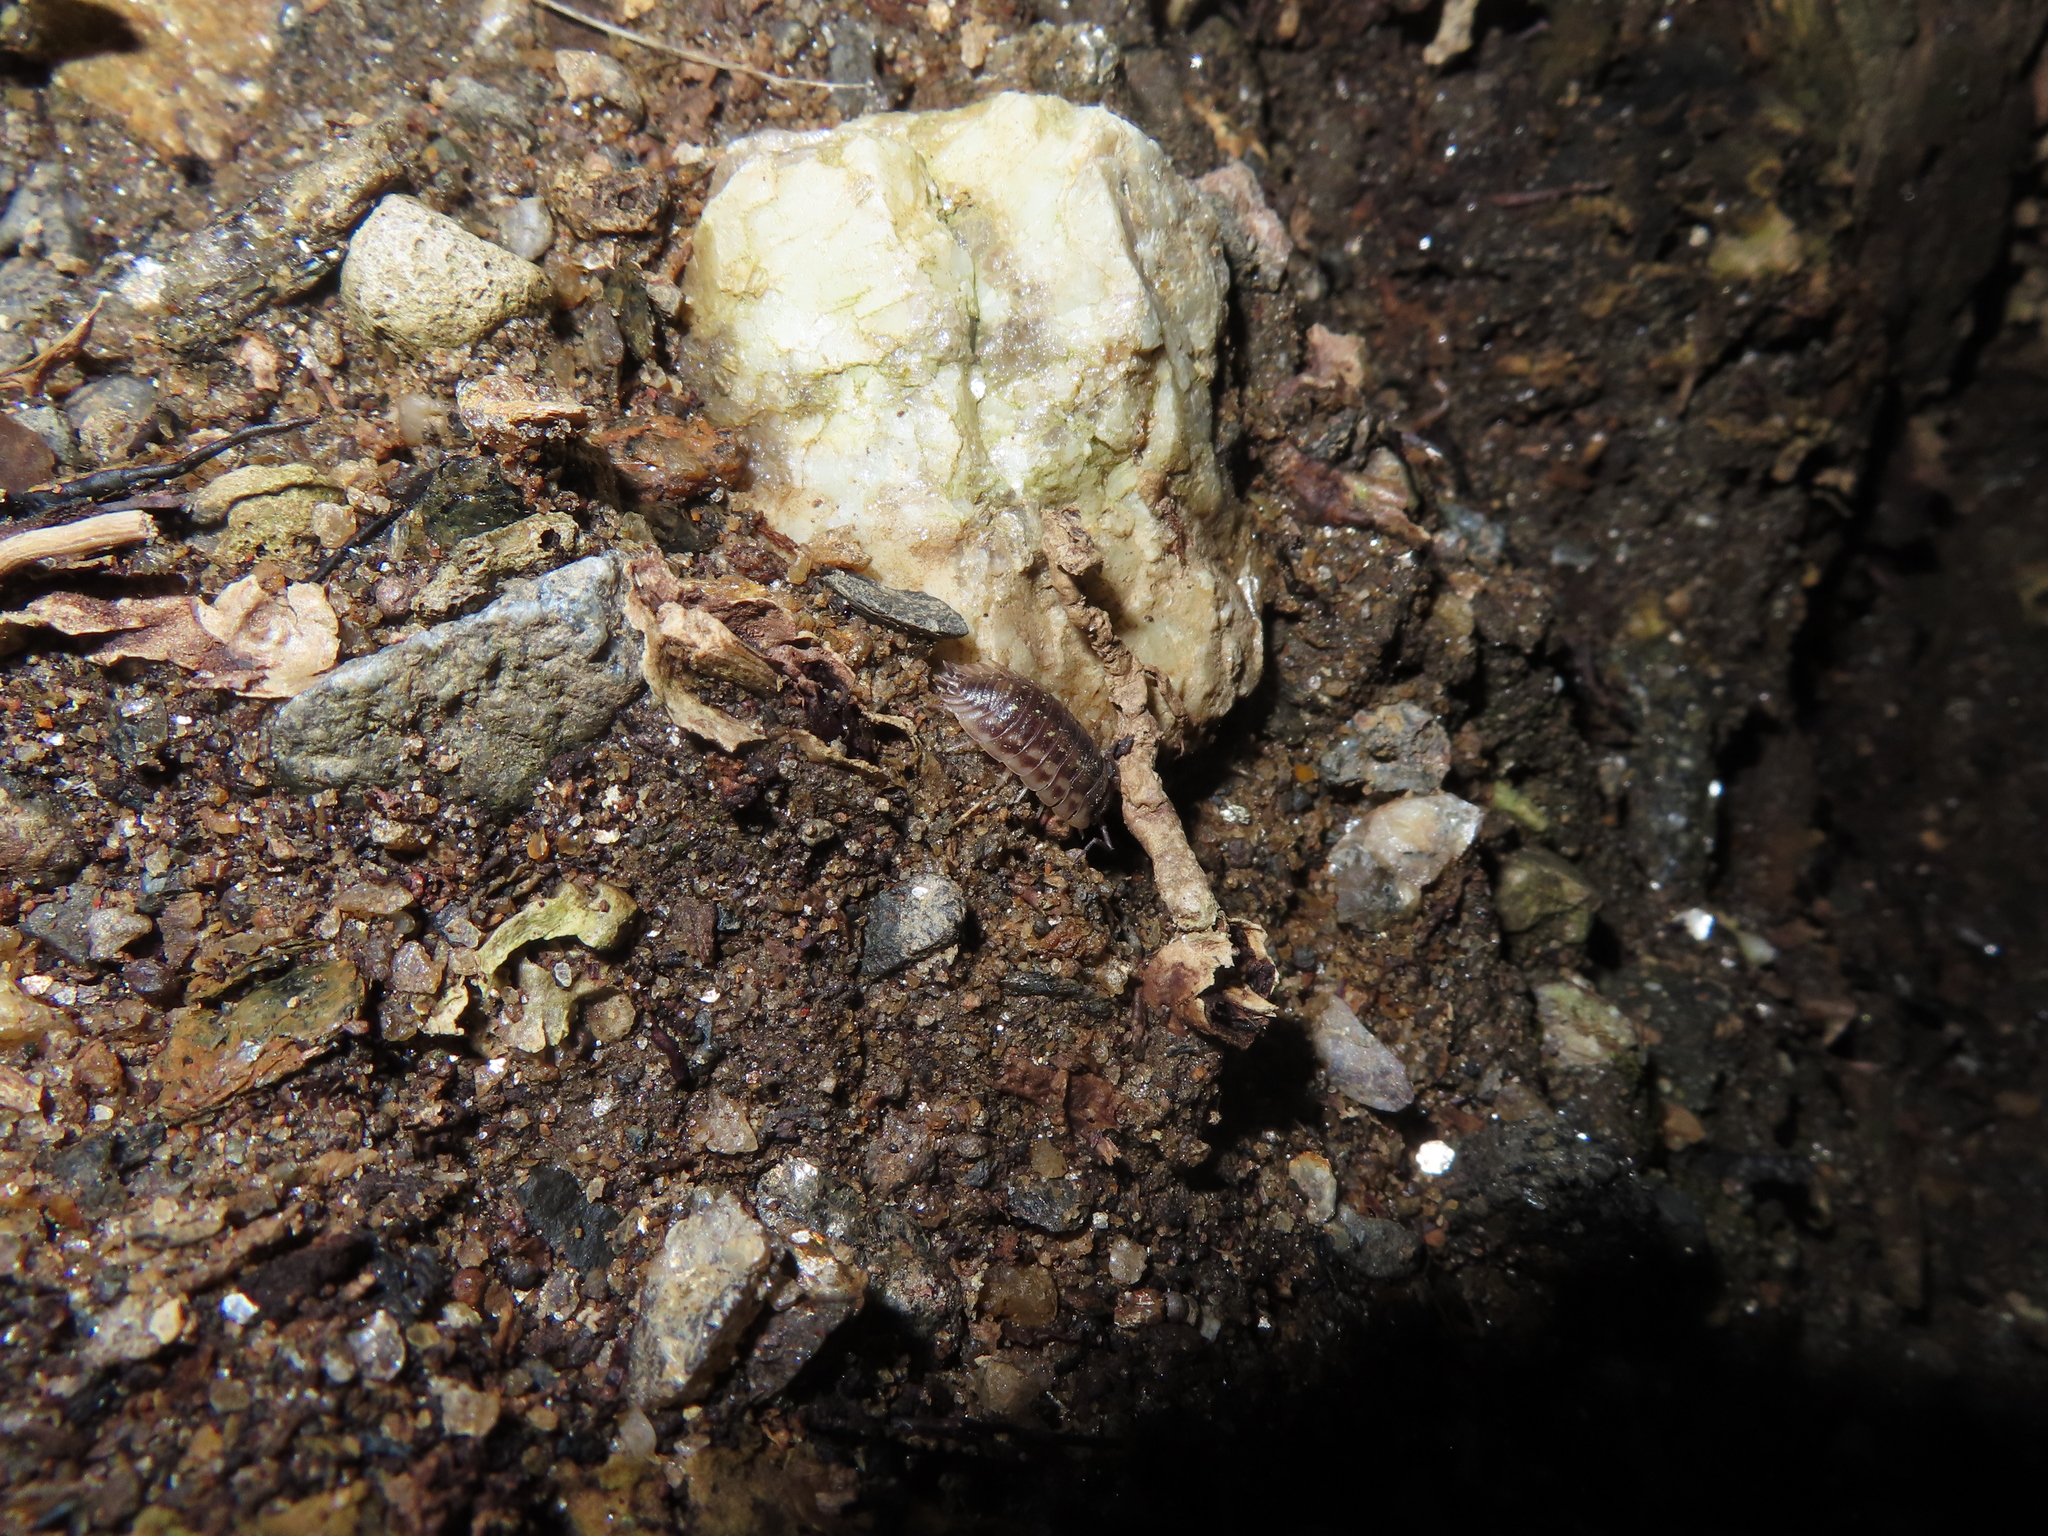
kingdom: Animalia
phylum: Arthropoda
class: Malacostraca
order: Isopoda
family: Oniscidae
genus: Oniscus
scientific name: Oniscus asellus
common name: Common shiny woodlouse
